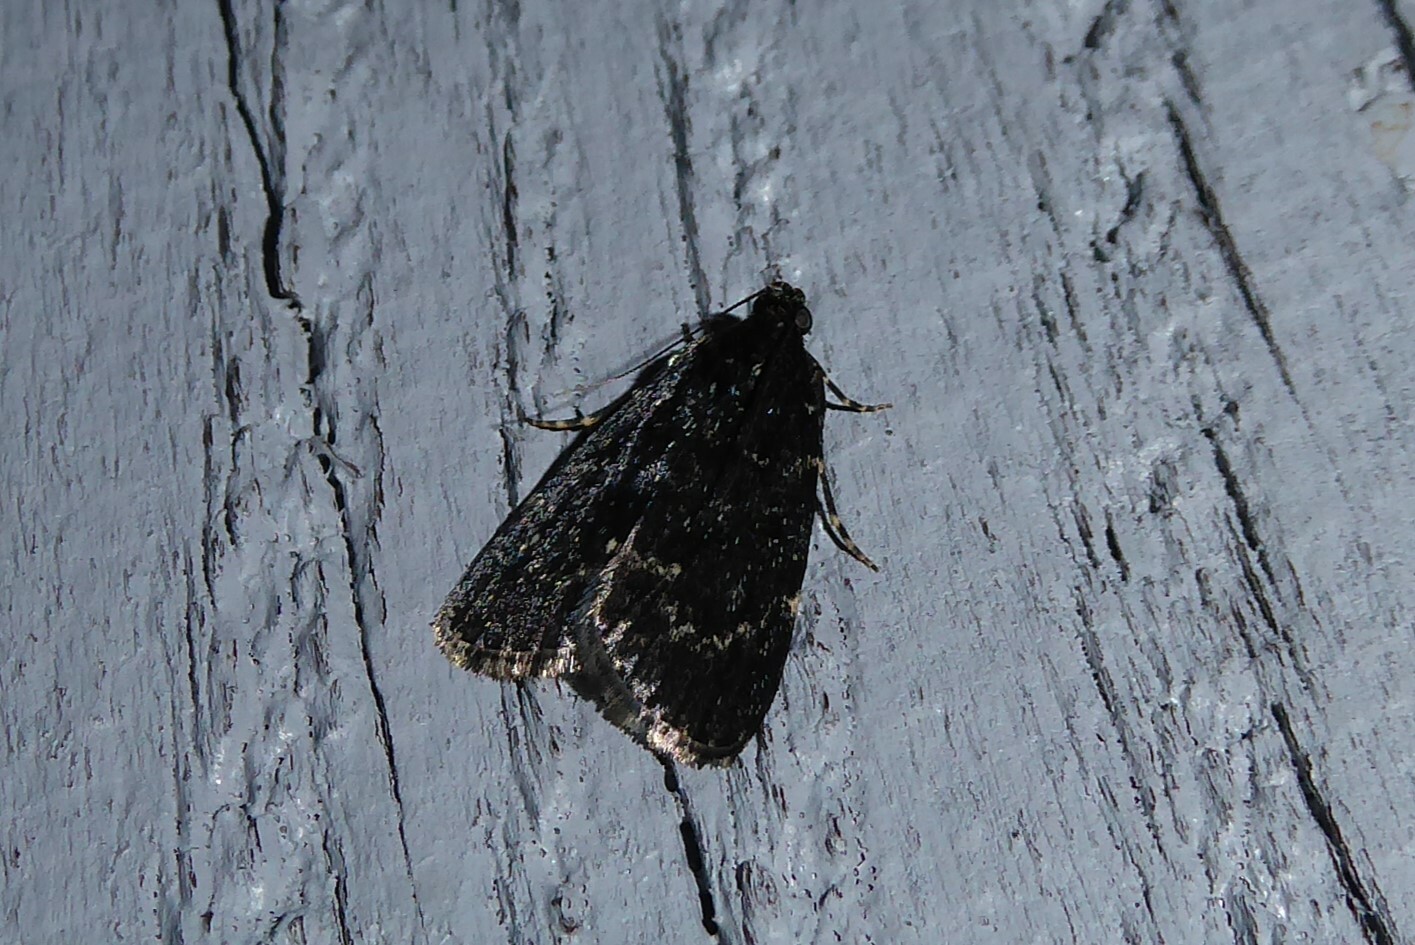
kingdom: Animalia
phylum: Arthropoda
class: Insecta
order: Lepidoptera
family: Pyralidae
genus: Stericta
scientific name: Stericta carbonalis
